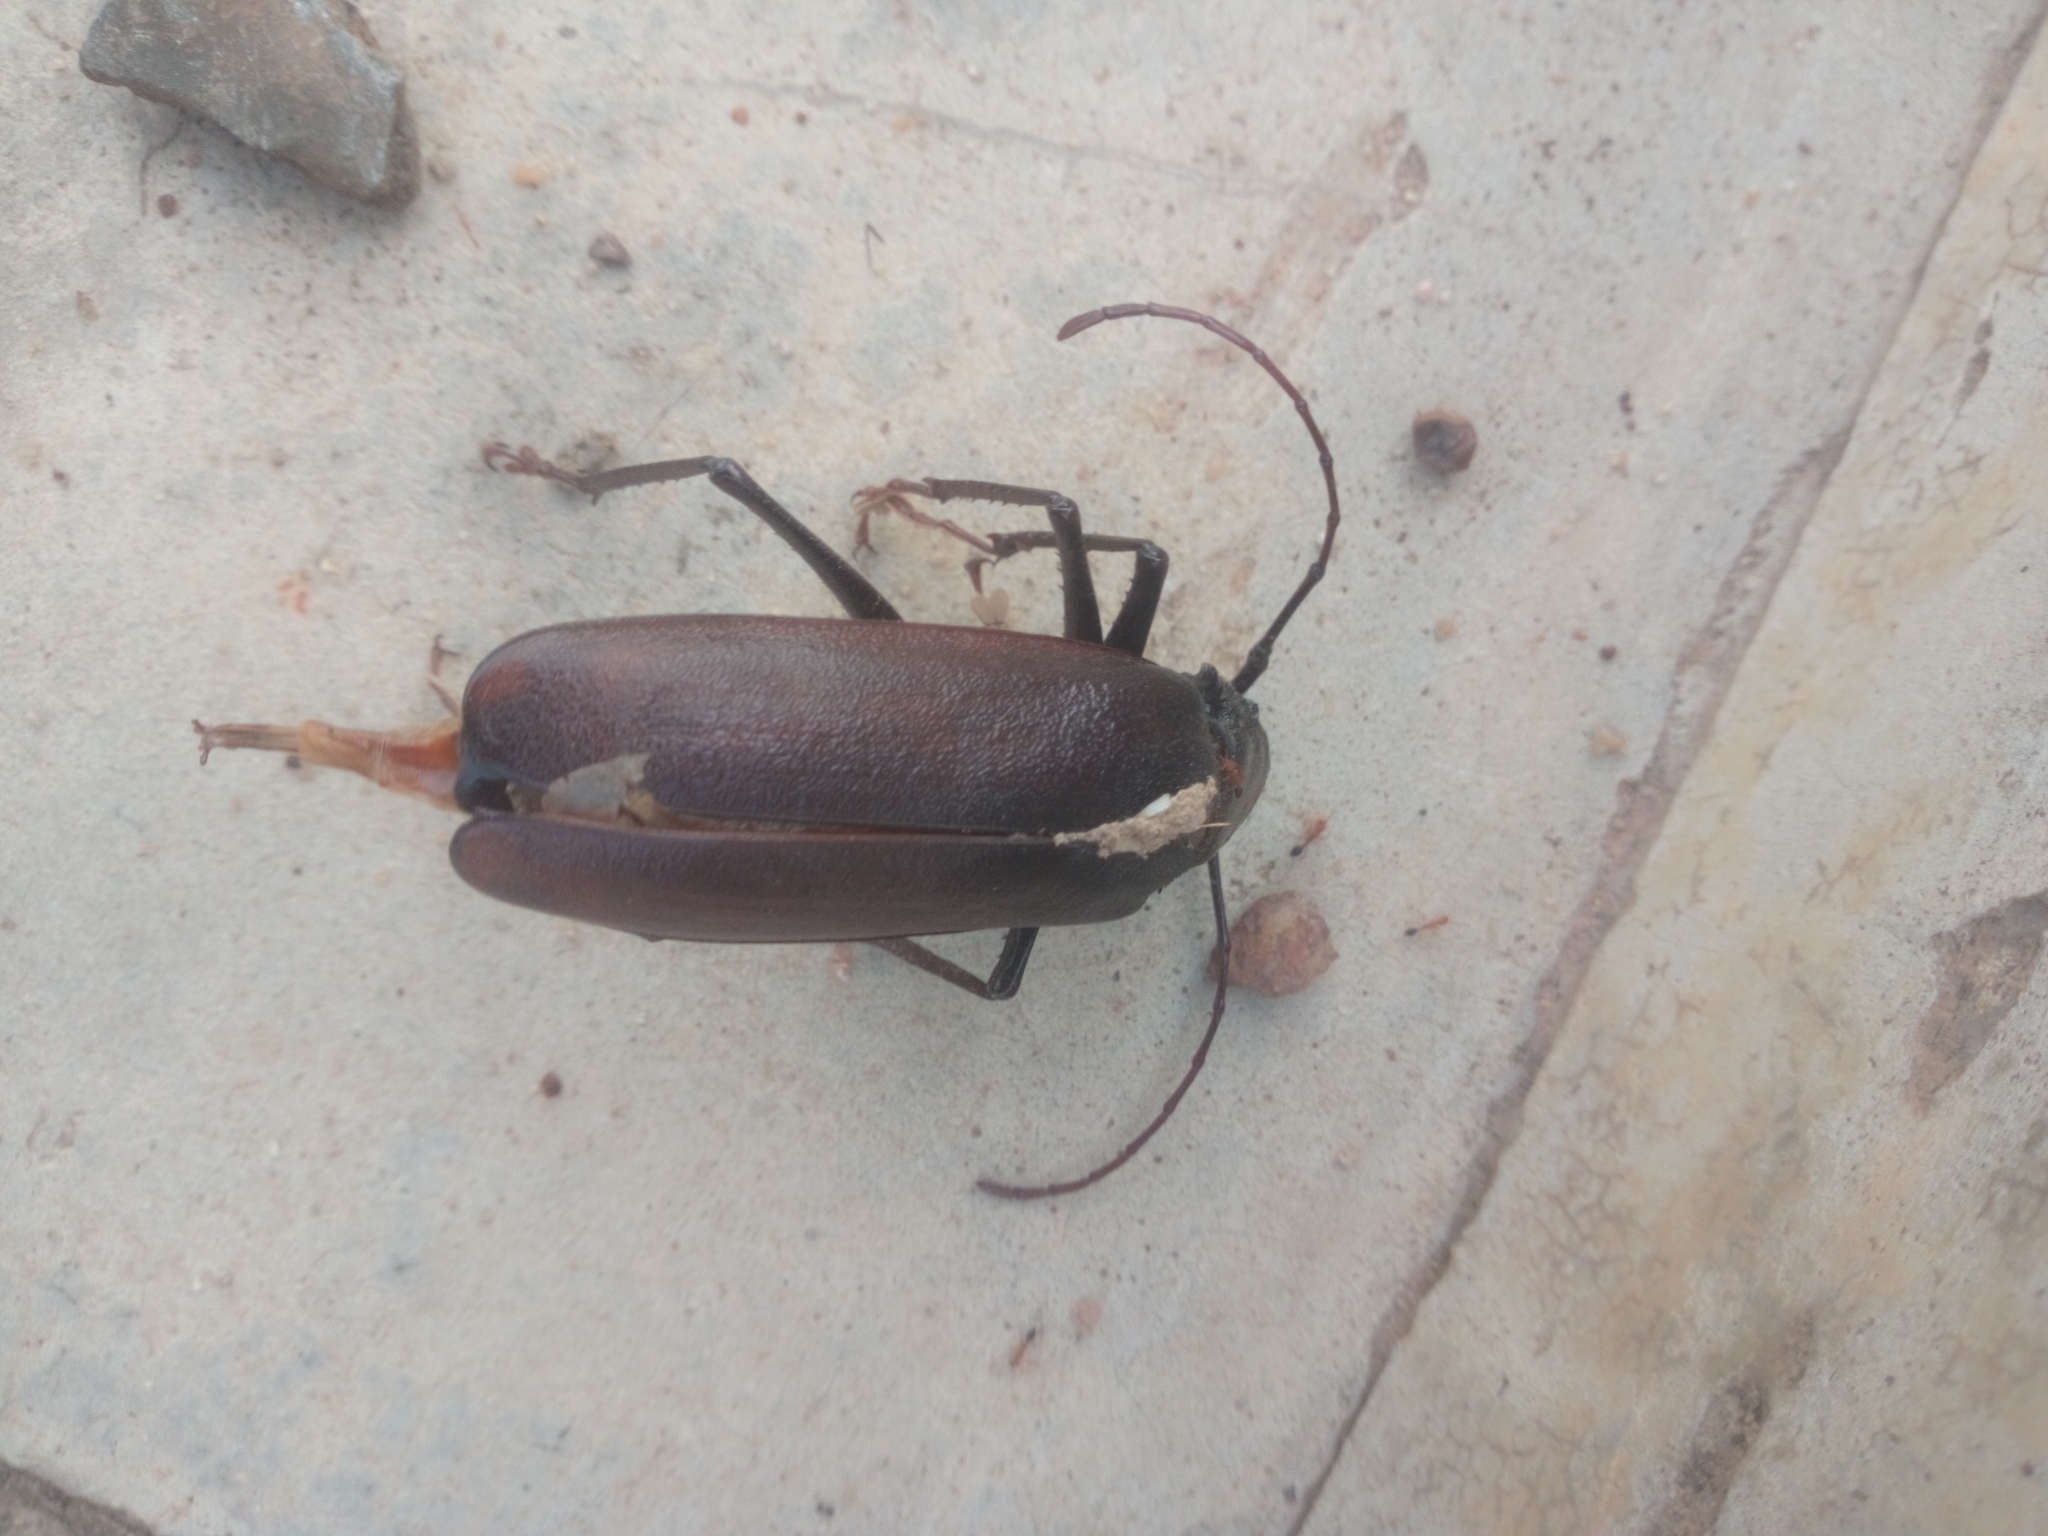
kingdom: Animalia
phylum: Arthropoda
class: Insecta
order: Coleoptera
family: Cerambycidae
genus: Macrotoma
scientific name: Macrotoma palmata
